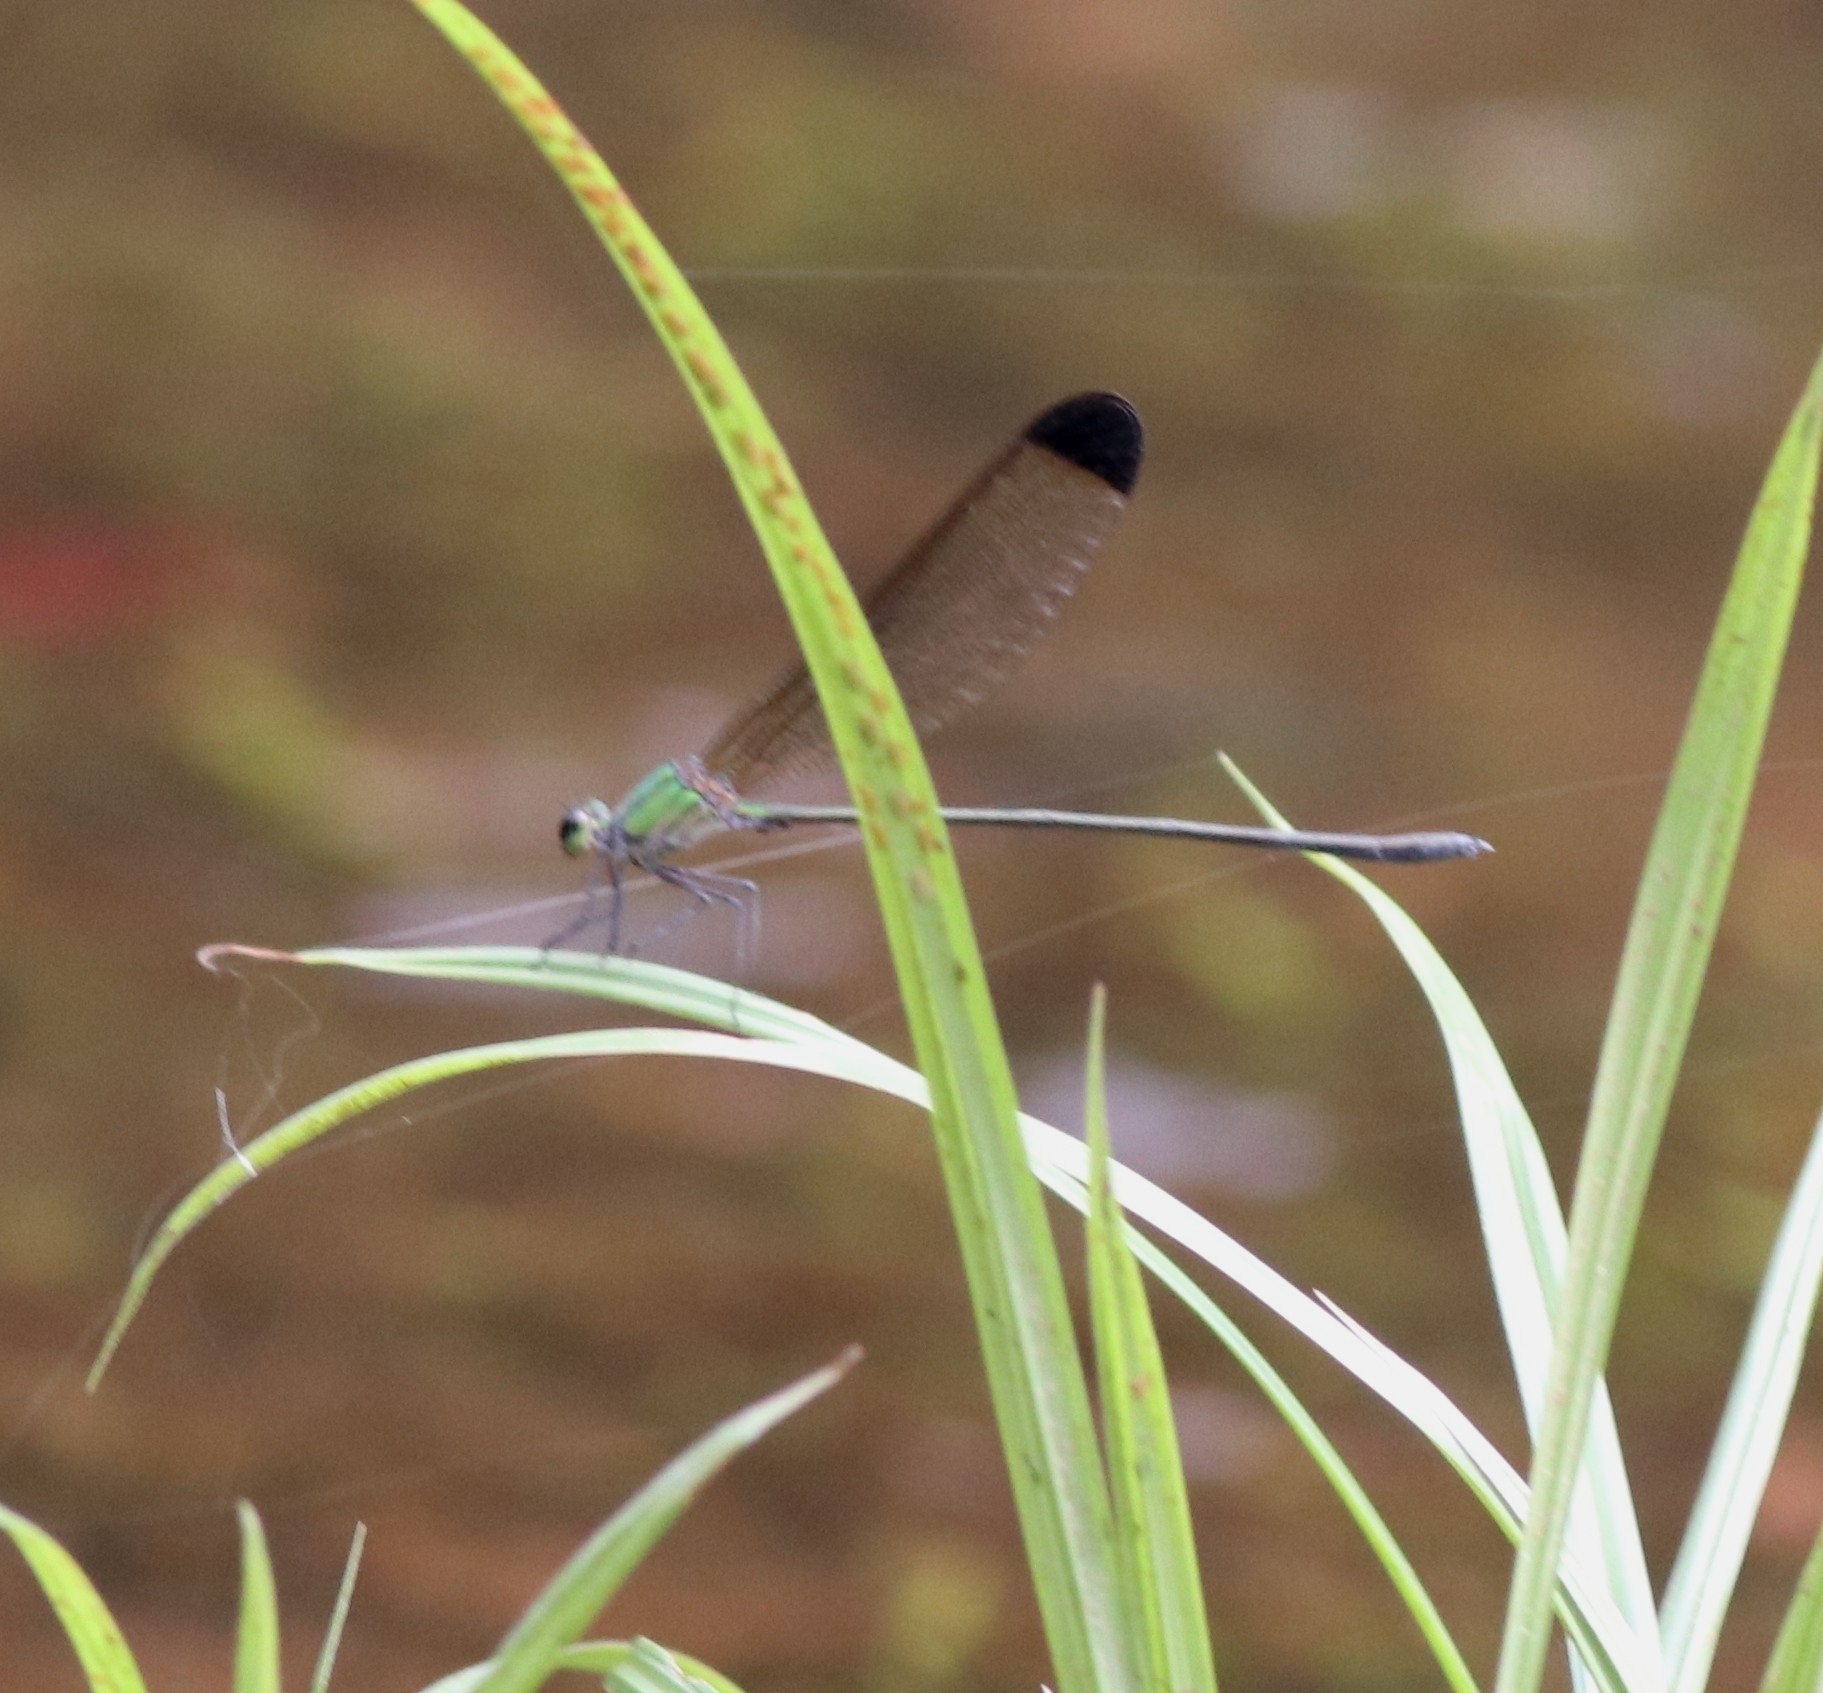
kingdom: Animalia
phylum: Arthropoda
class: Insecta
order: Odonata
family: Calopterygidae
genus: Vestalis
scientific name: Vestalis apicalis
